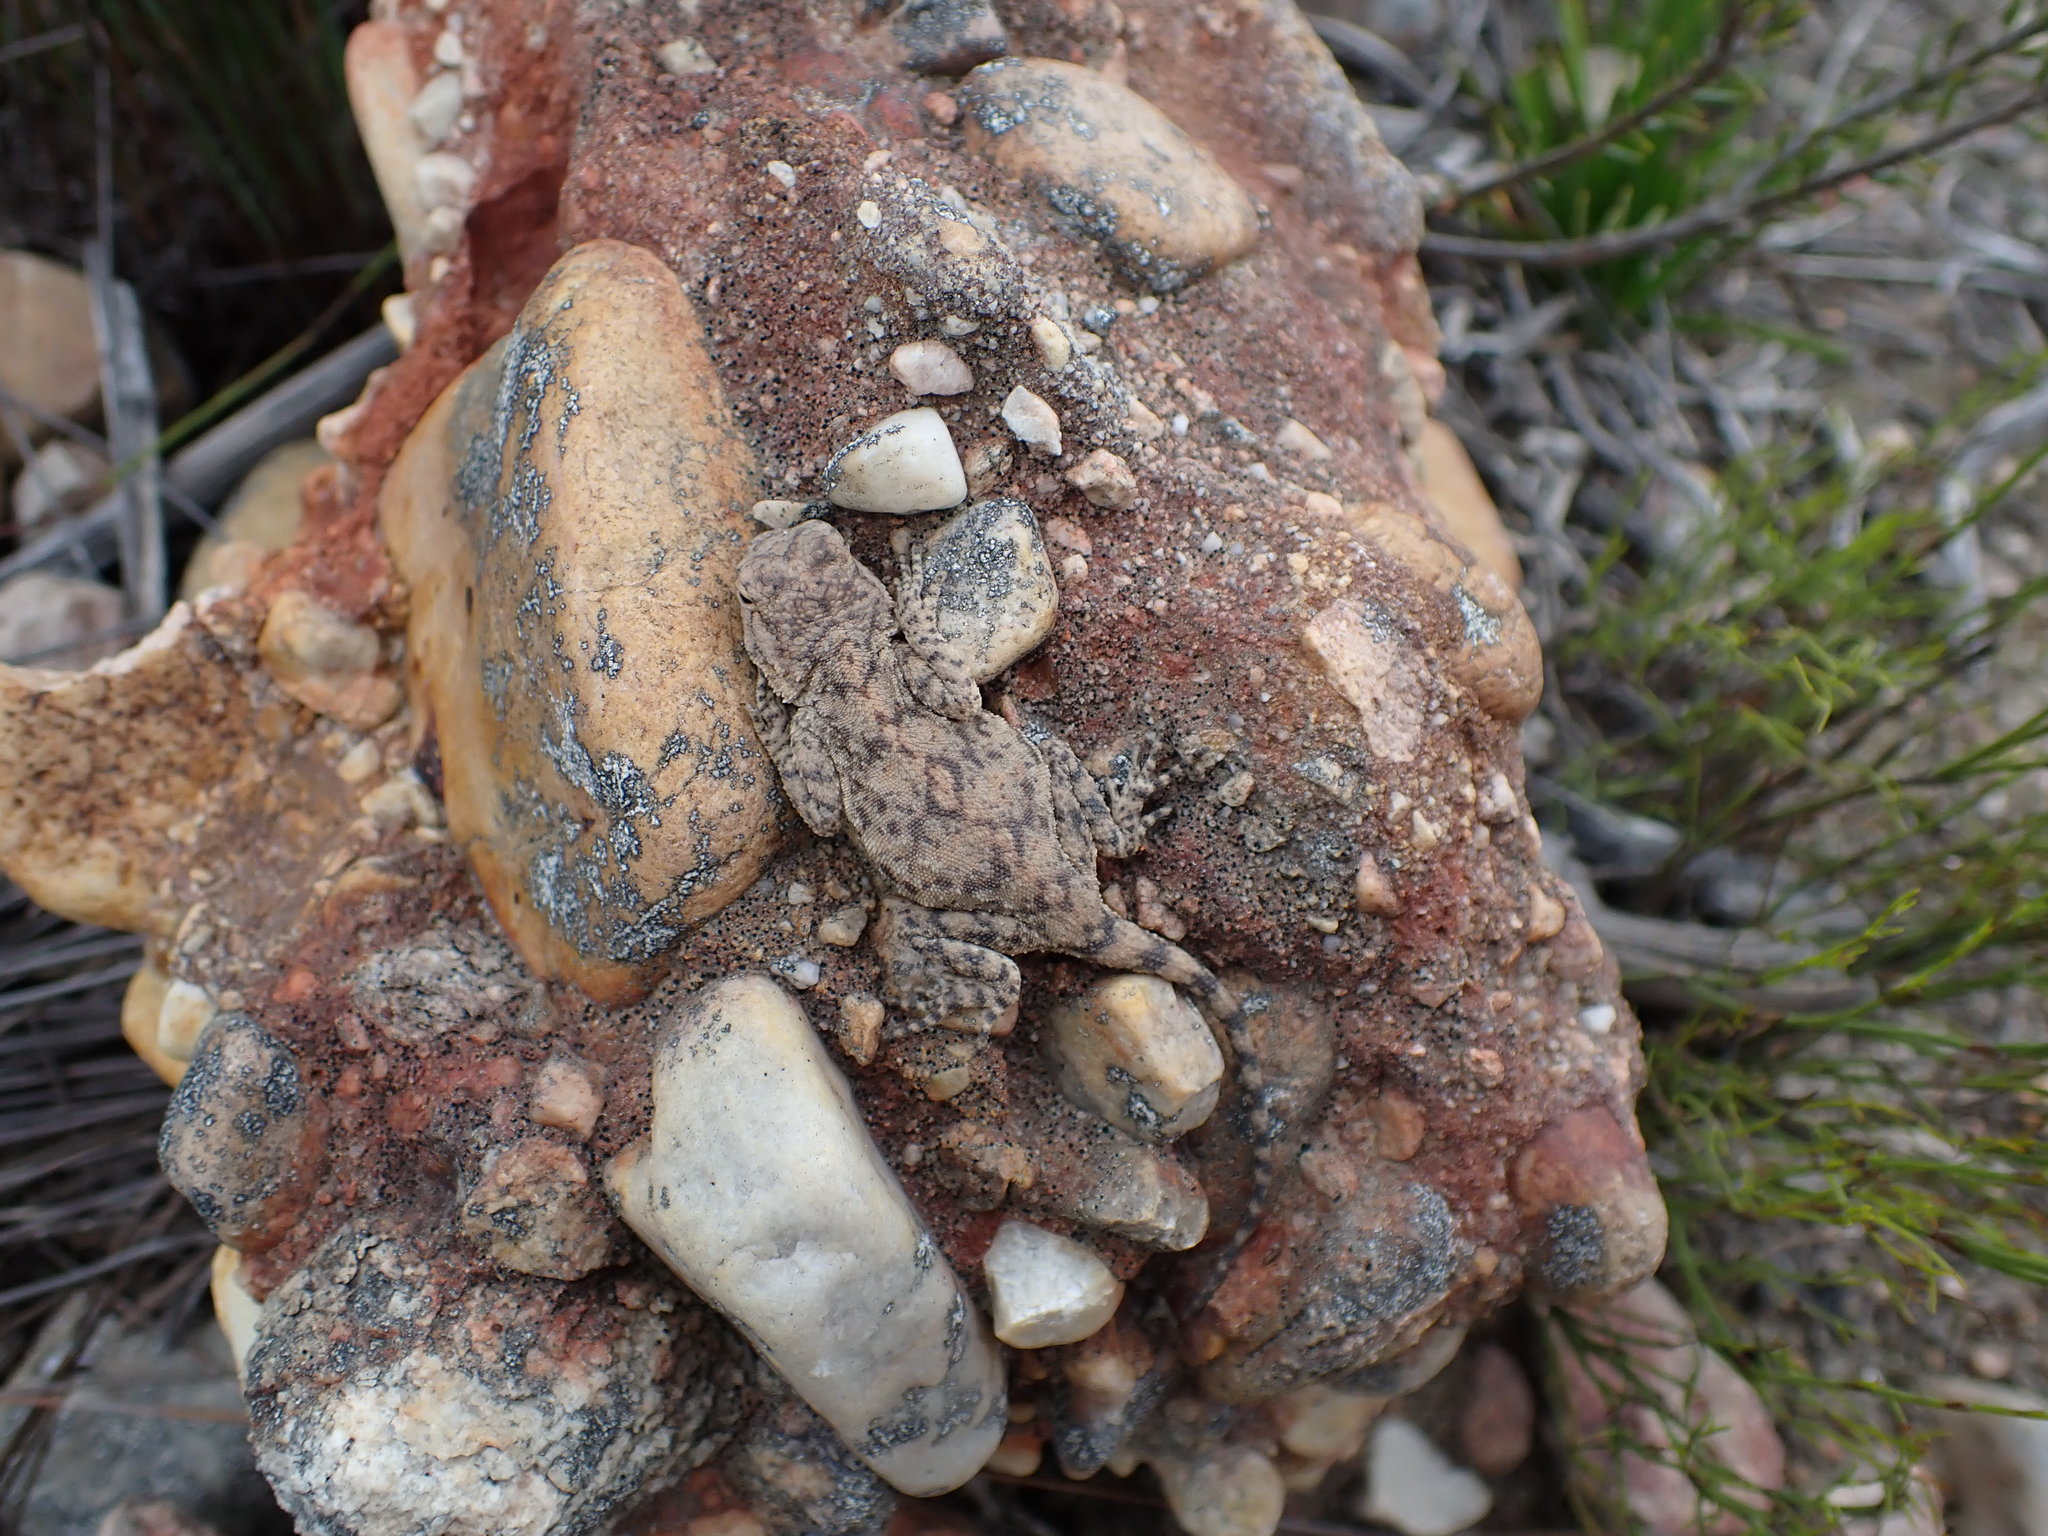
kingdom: Animalia
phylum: Chordata
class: Squamata
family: Agamidae
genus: Agama
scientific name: Agama atra
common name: Southern african rock agama
